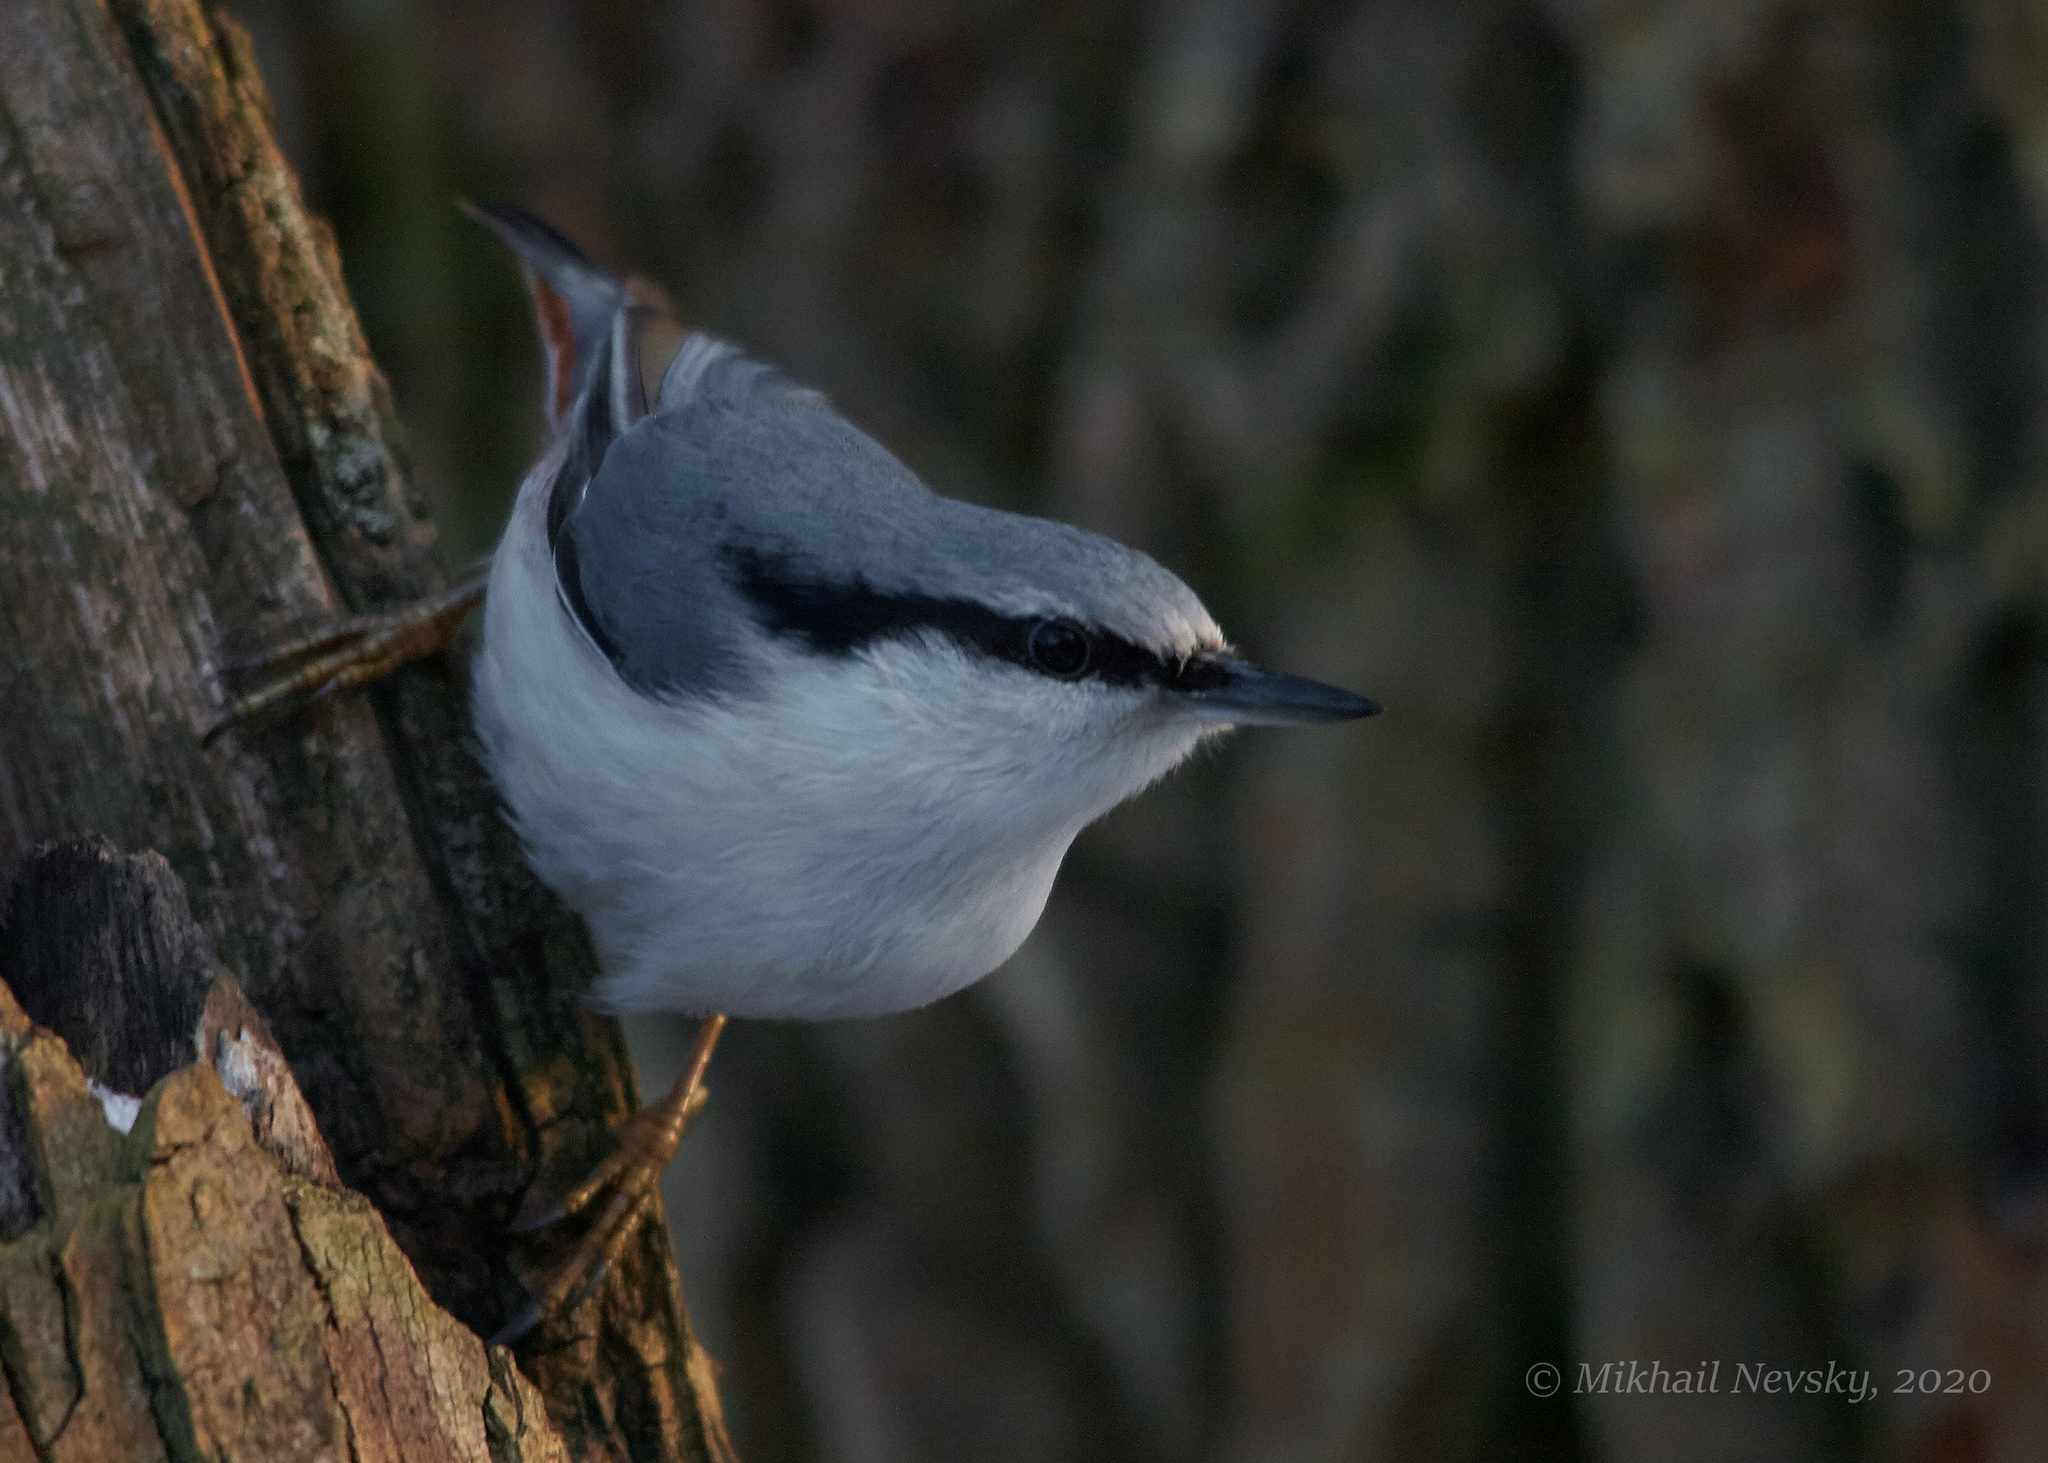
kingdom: Animalia
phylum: Chordata
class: Aves
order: Passeriformes
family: Sittidae
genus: Sitta
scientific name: Sitta europaea
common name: Eurasian nuthatch
